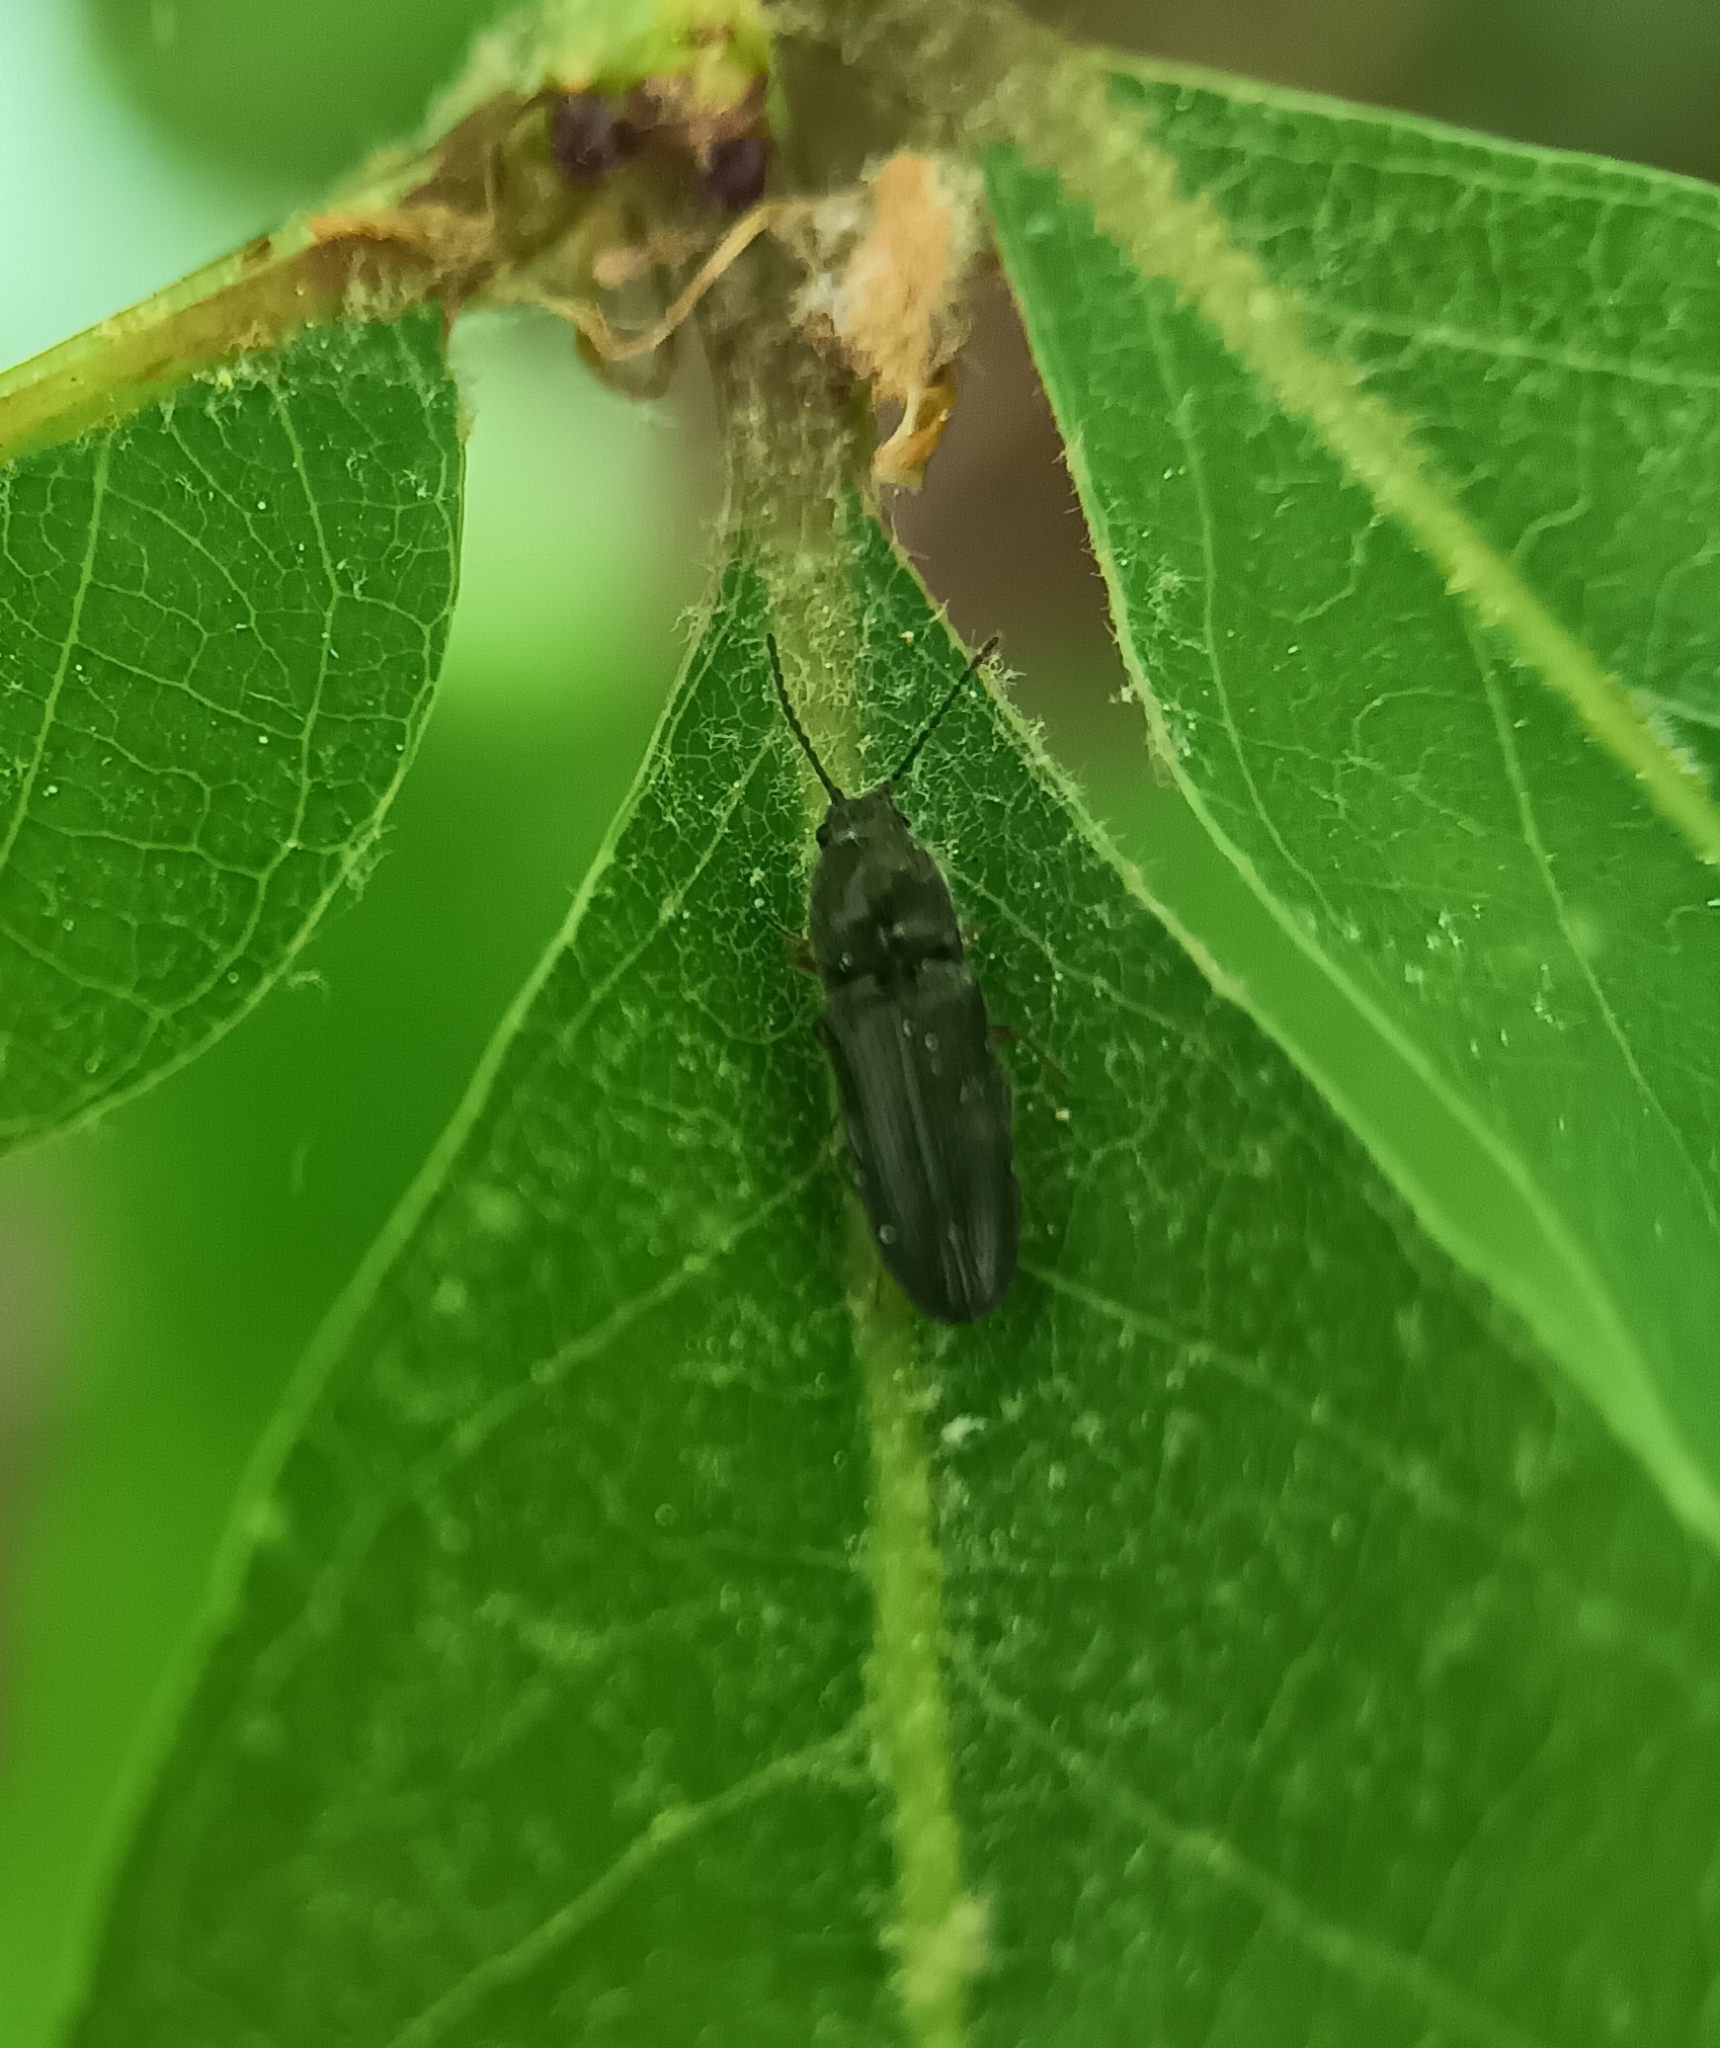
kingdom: Animalia
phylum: Arthropoda
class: Insecta
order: Coleoptera
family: Elateridae
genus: Limonius
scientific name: Limonius quercinus
